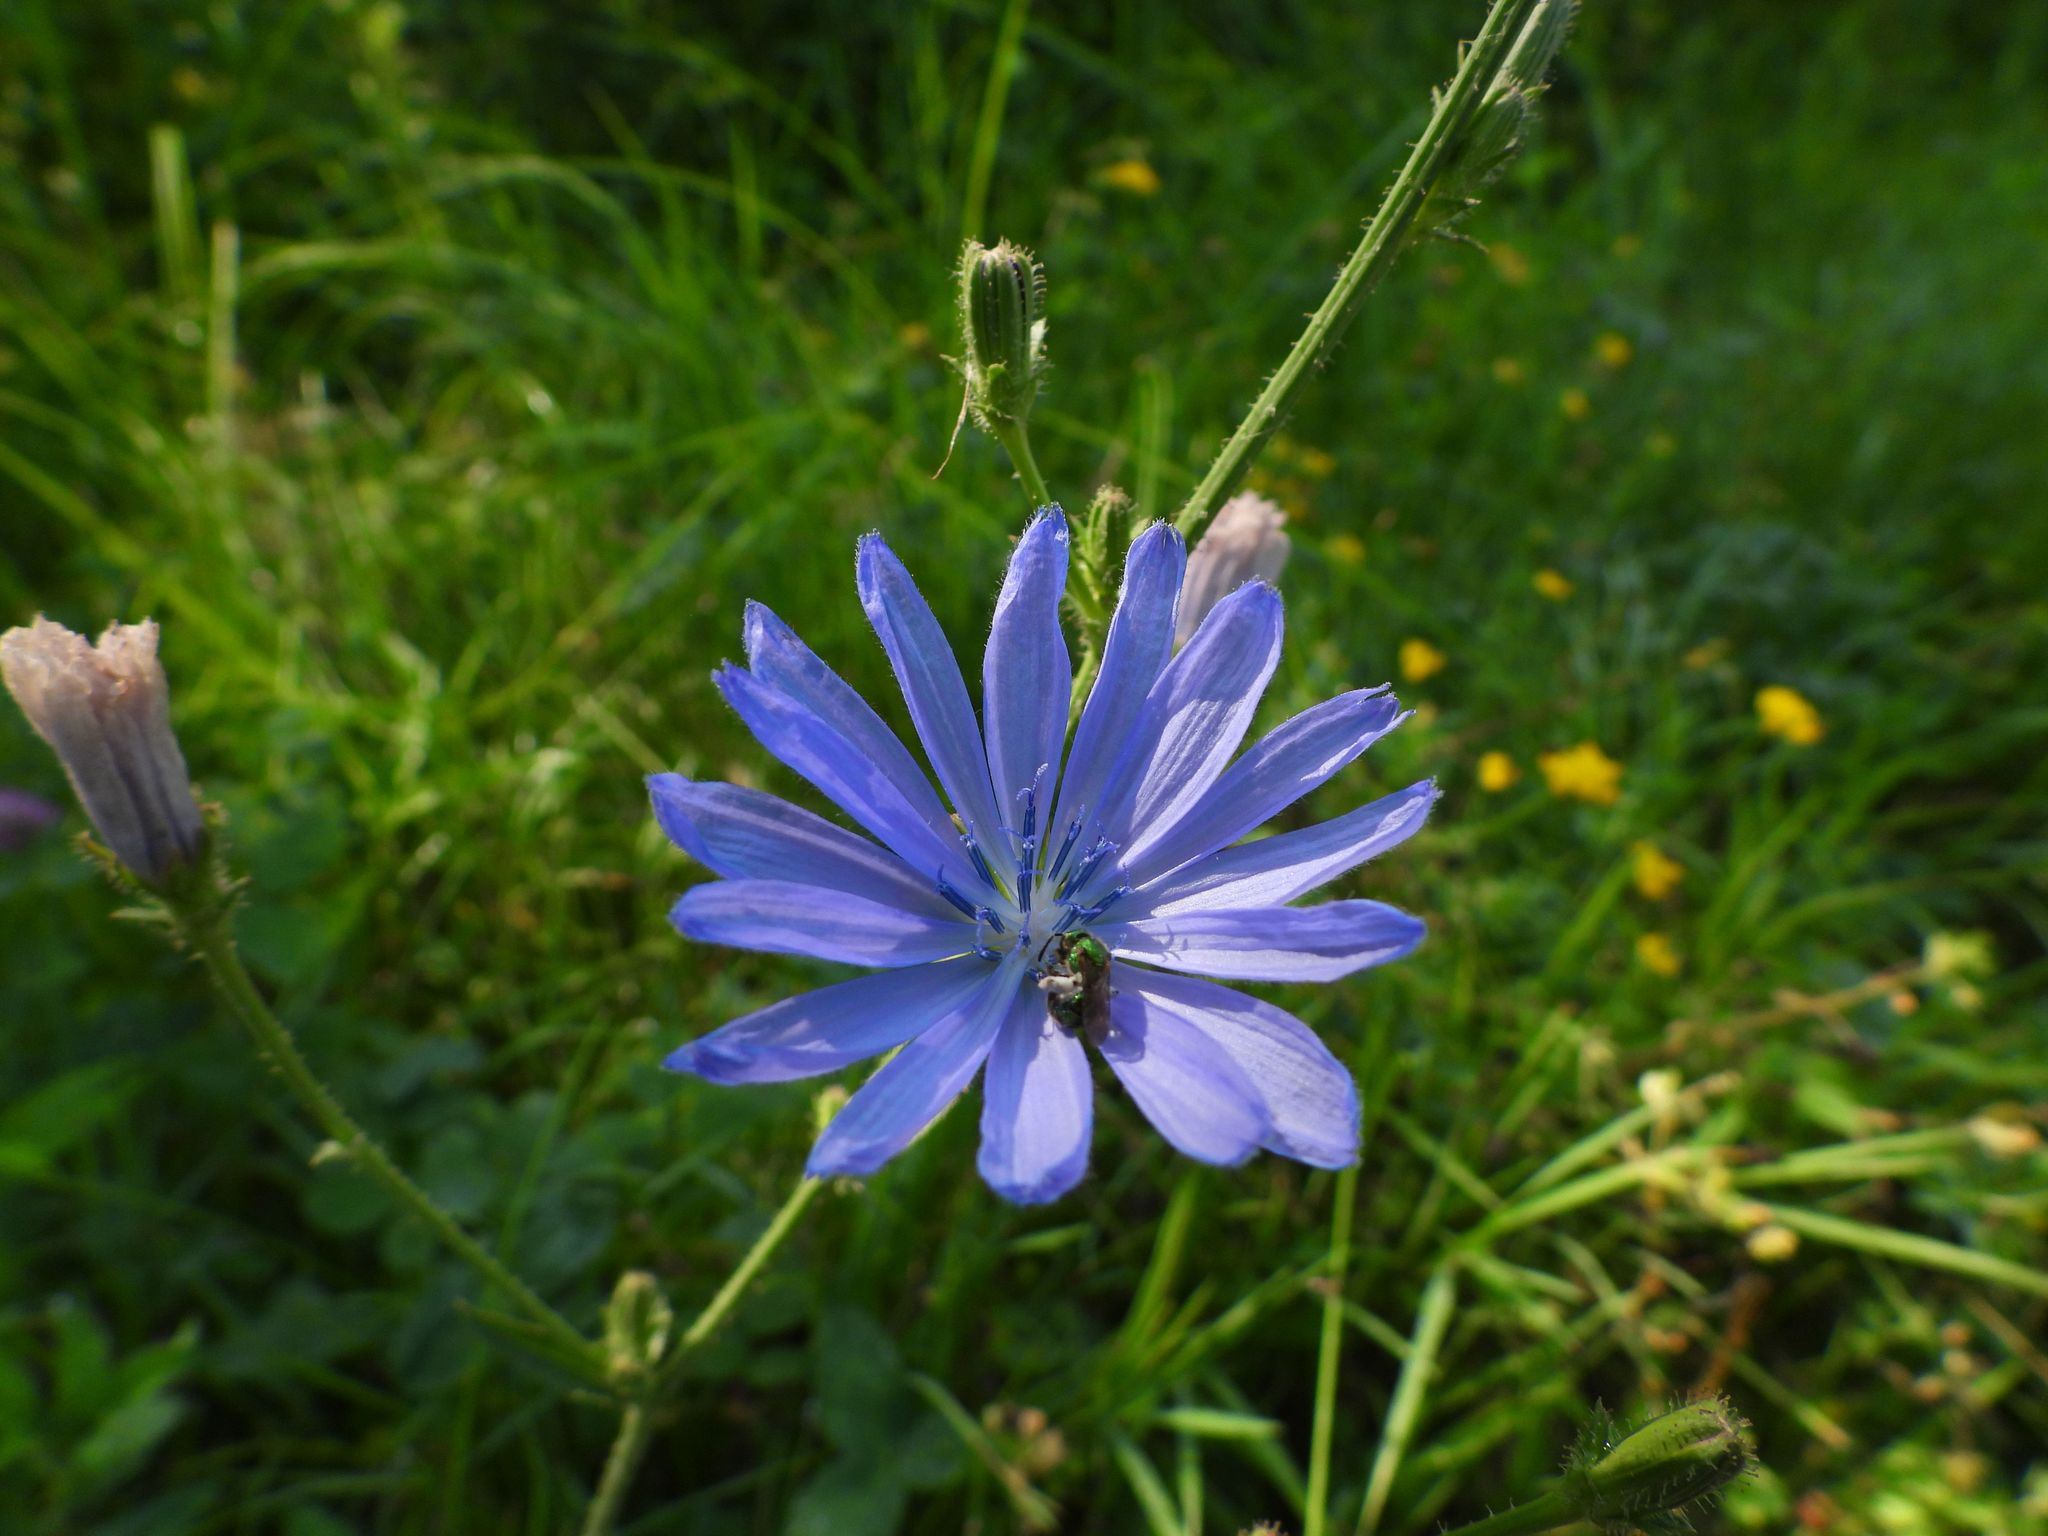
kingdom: Plantae
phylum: Tracheophyta
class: Magnoliopsida
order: Asterales
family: Asteraceae
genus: Cichorium
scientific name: Cichorium intybus
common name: Chicory
